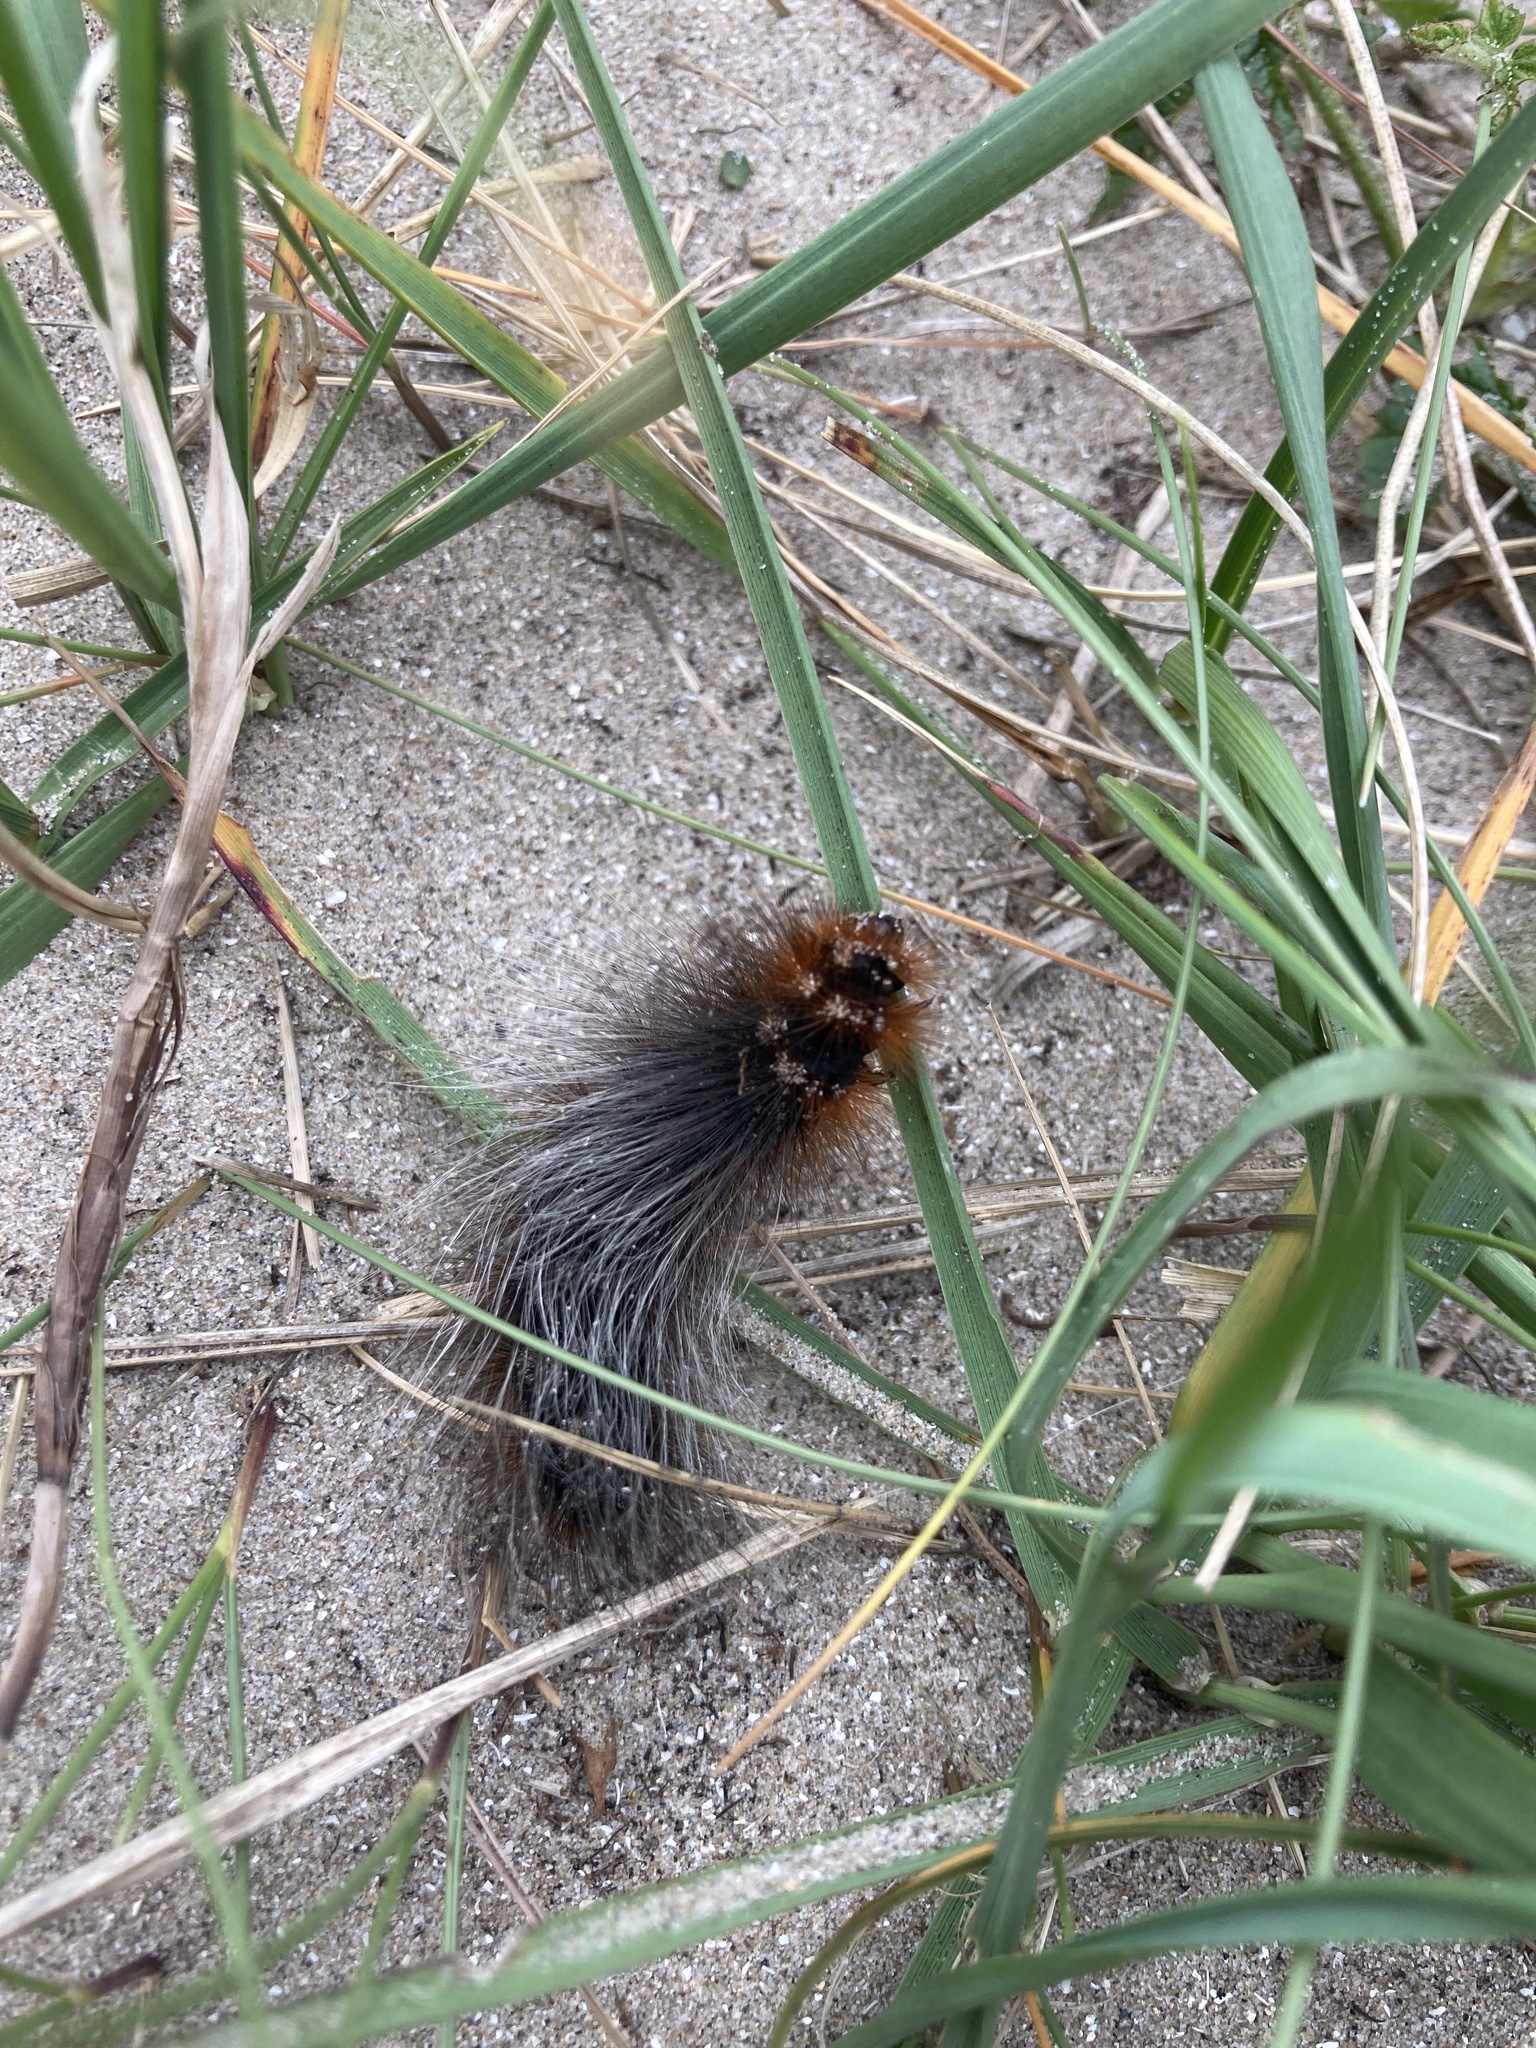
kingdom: Animalia
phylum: Arthropoda
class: Insecta
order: Lepidoptera
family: Erebidae
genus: Arctia
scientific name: Arctia caja
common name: Garden tiger
